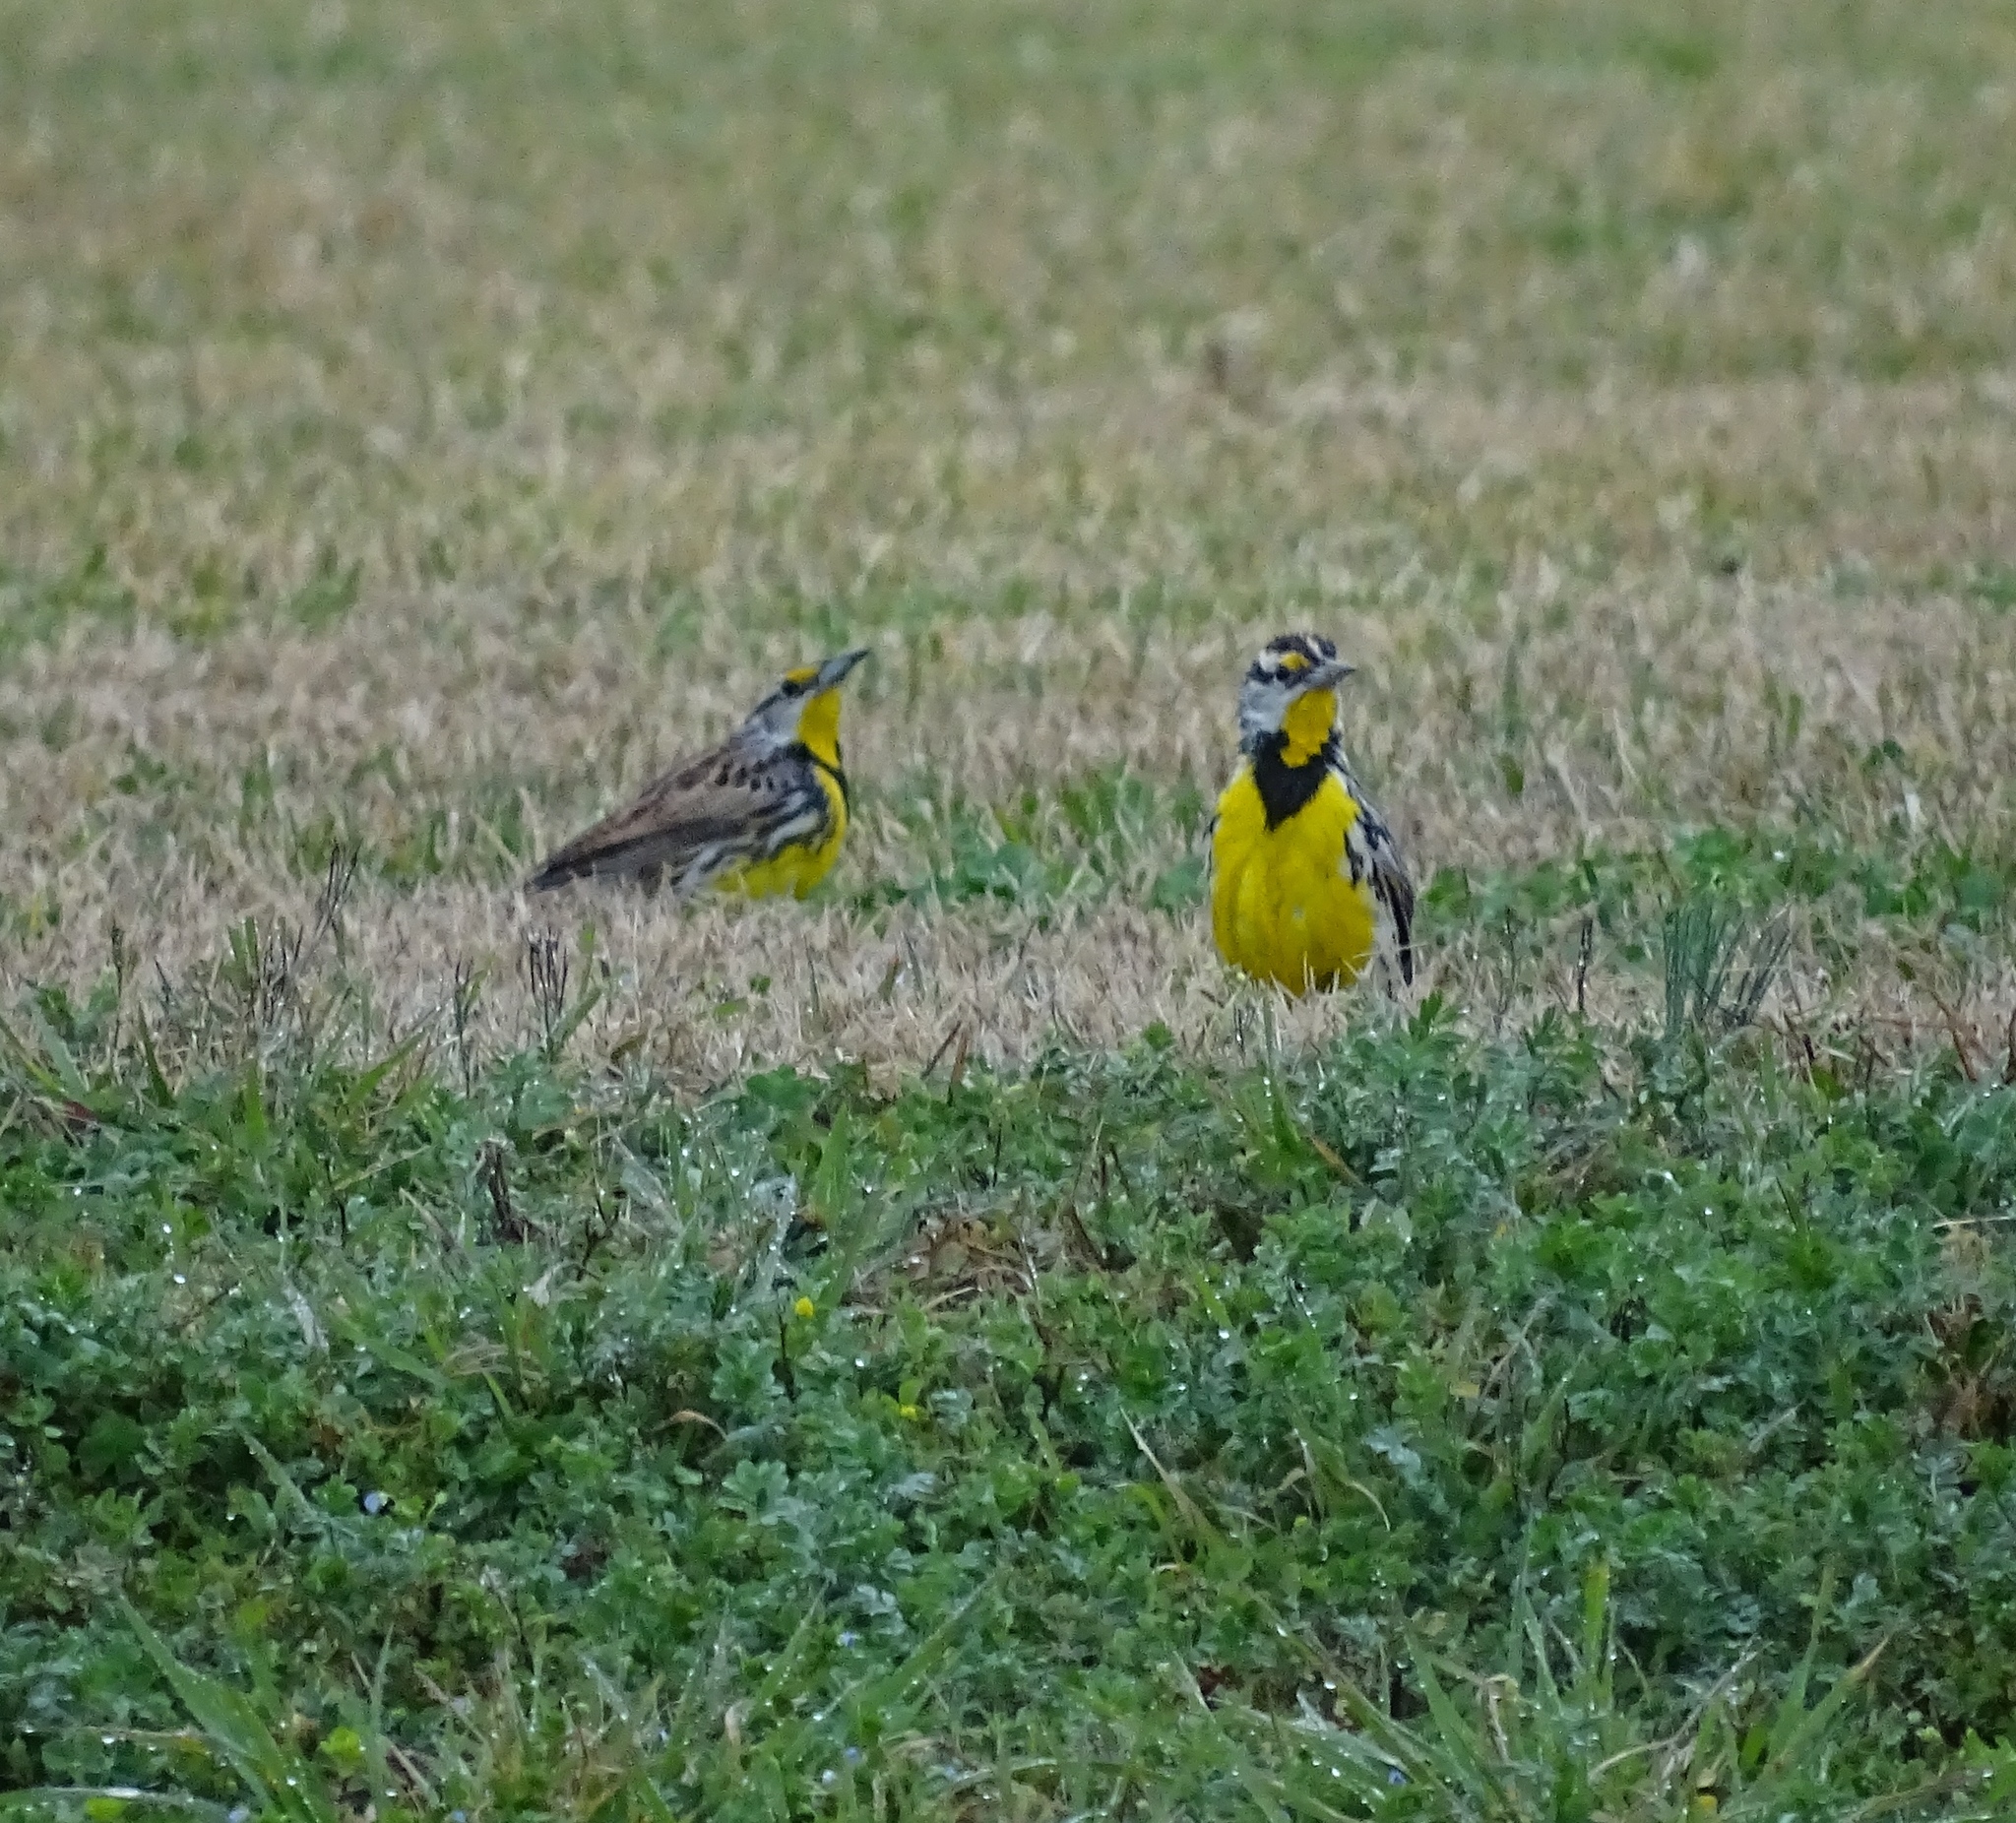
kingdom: Animalia
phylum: Chordata
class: Aves
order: Passeriformes
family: Icteridae
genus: Sturnella
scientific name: Sturnella magna
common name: Eastern meadowlark
